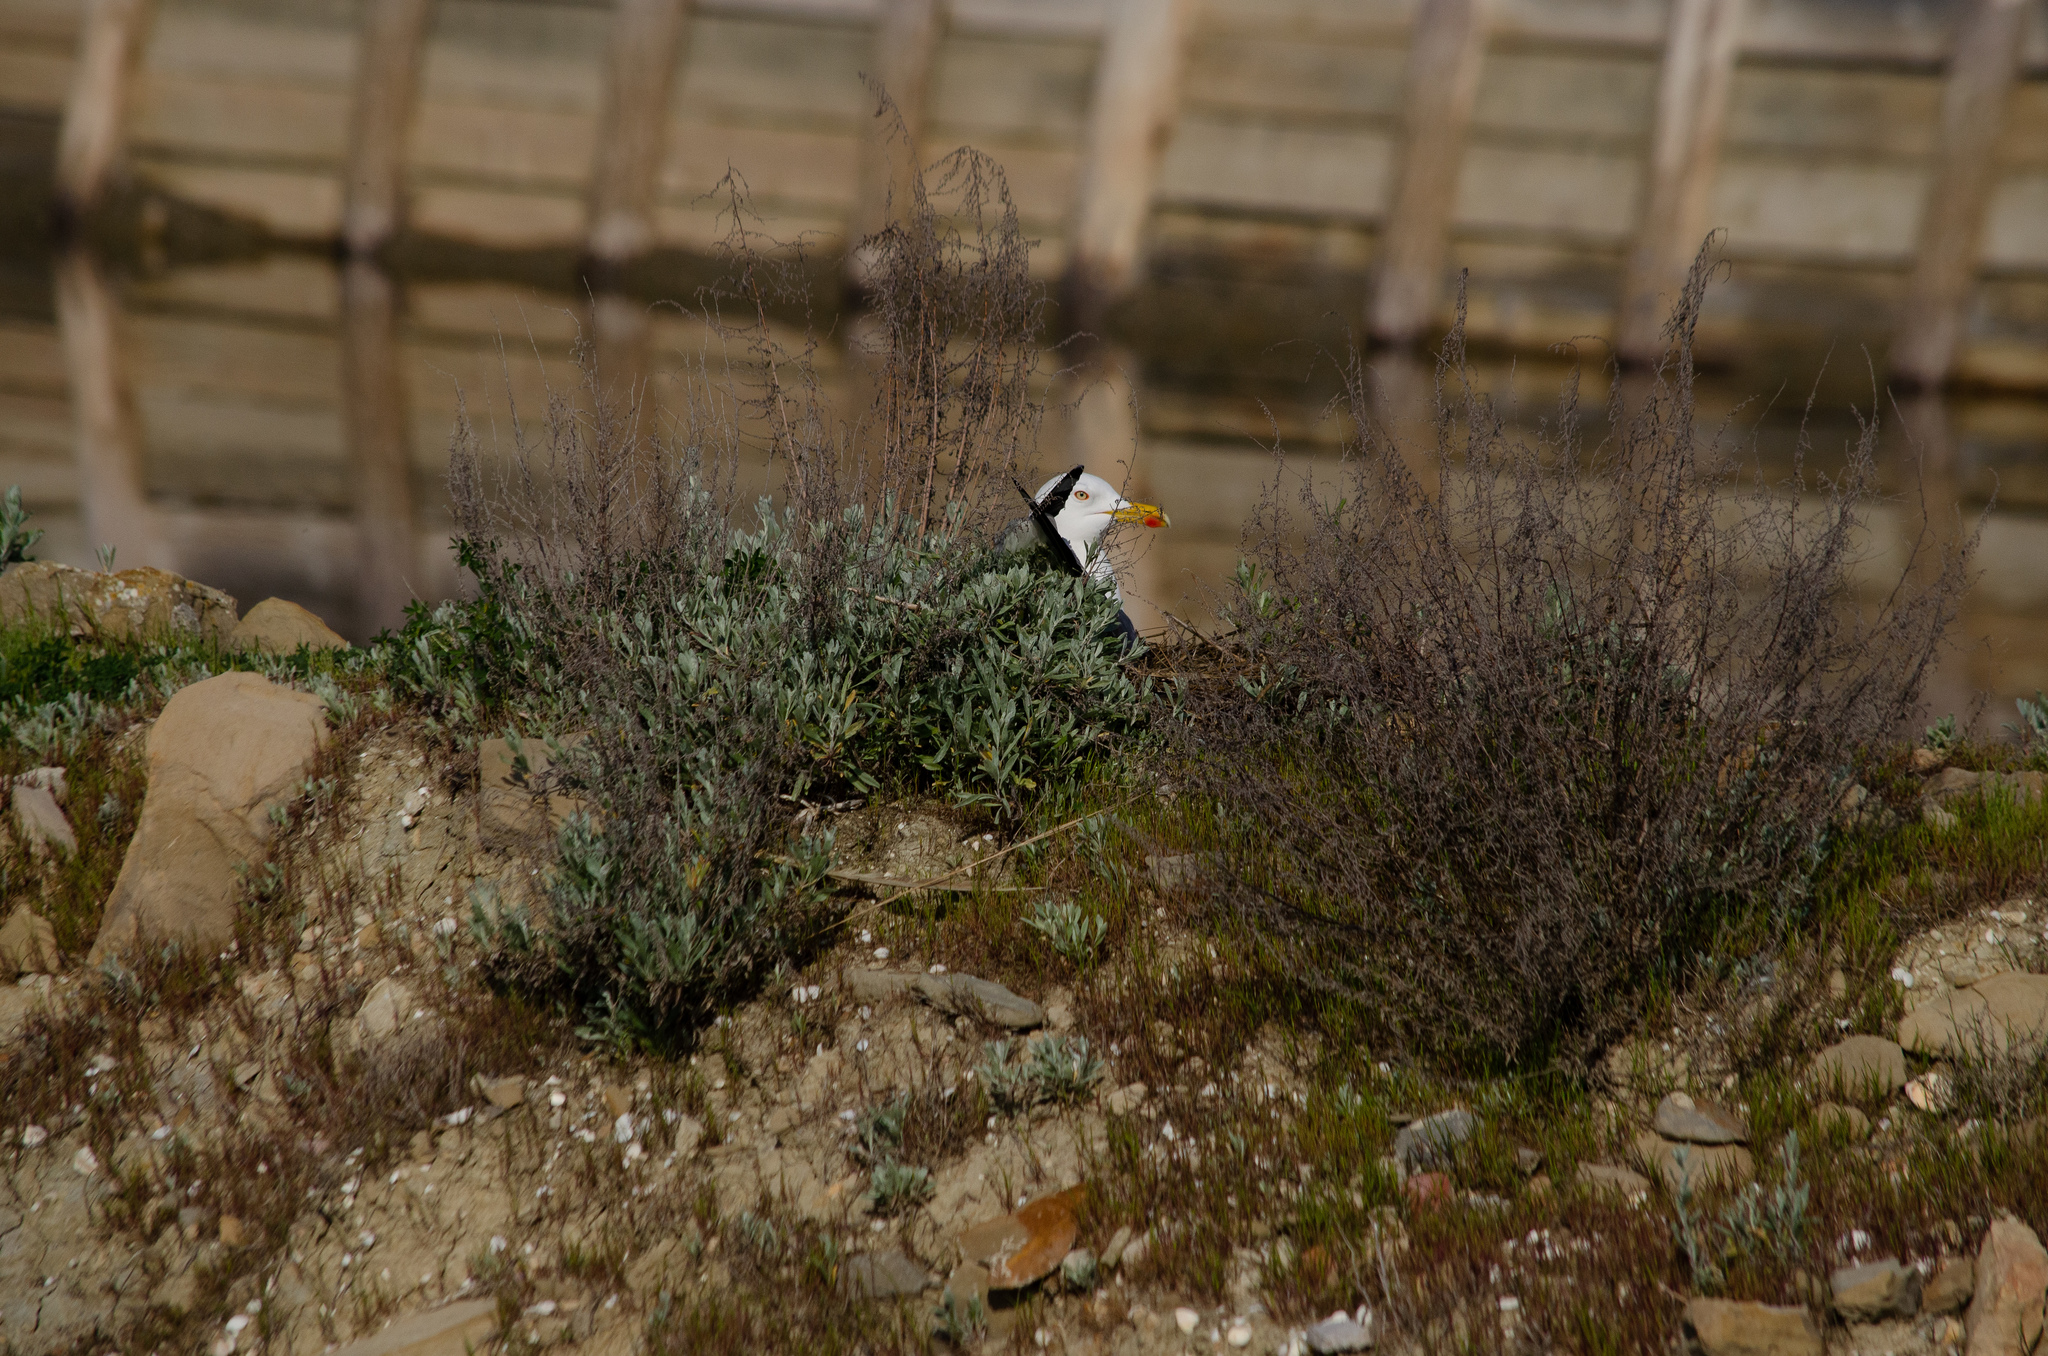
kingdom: Animalia
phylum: Chordata
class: Aves
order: Charadriiformes
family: Laridae
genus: Larus
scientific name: Larus michahellis
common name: Yellow-legged gull
